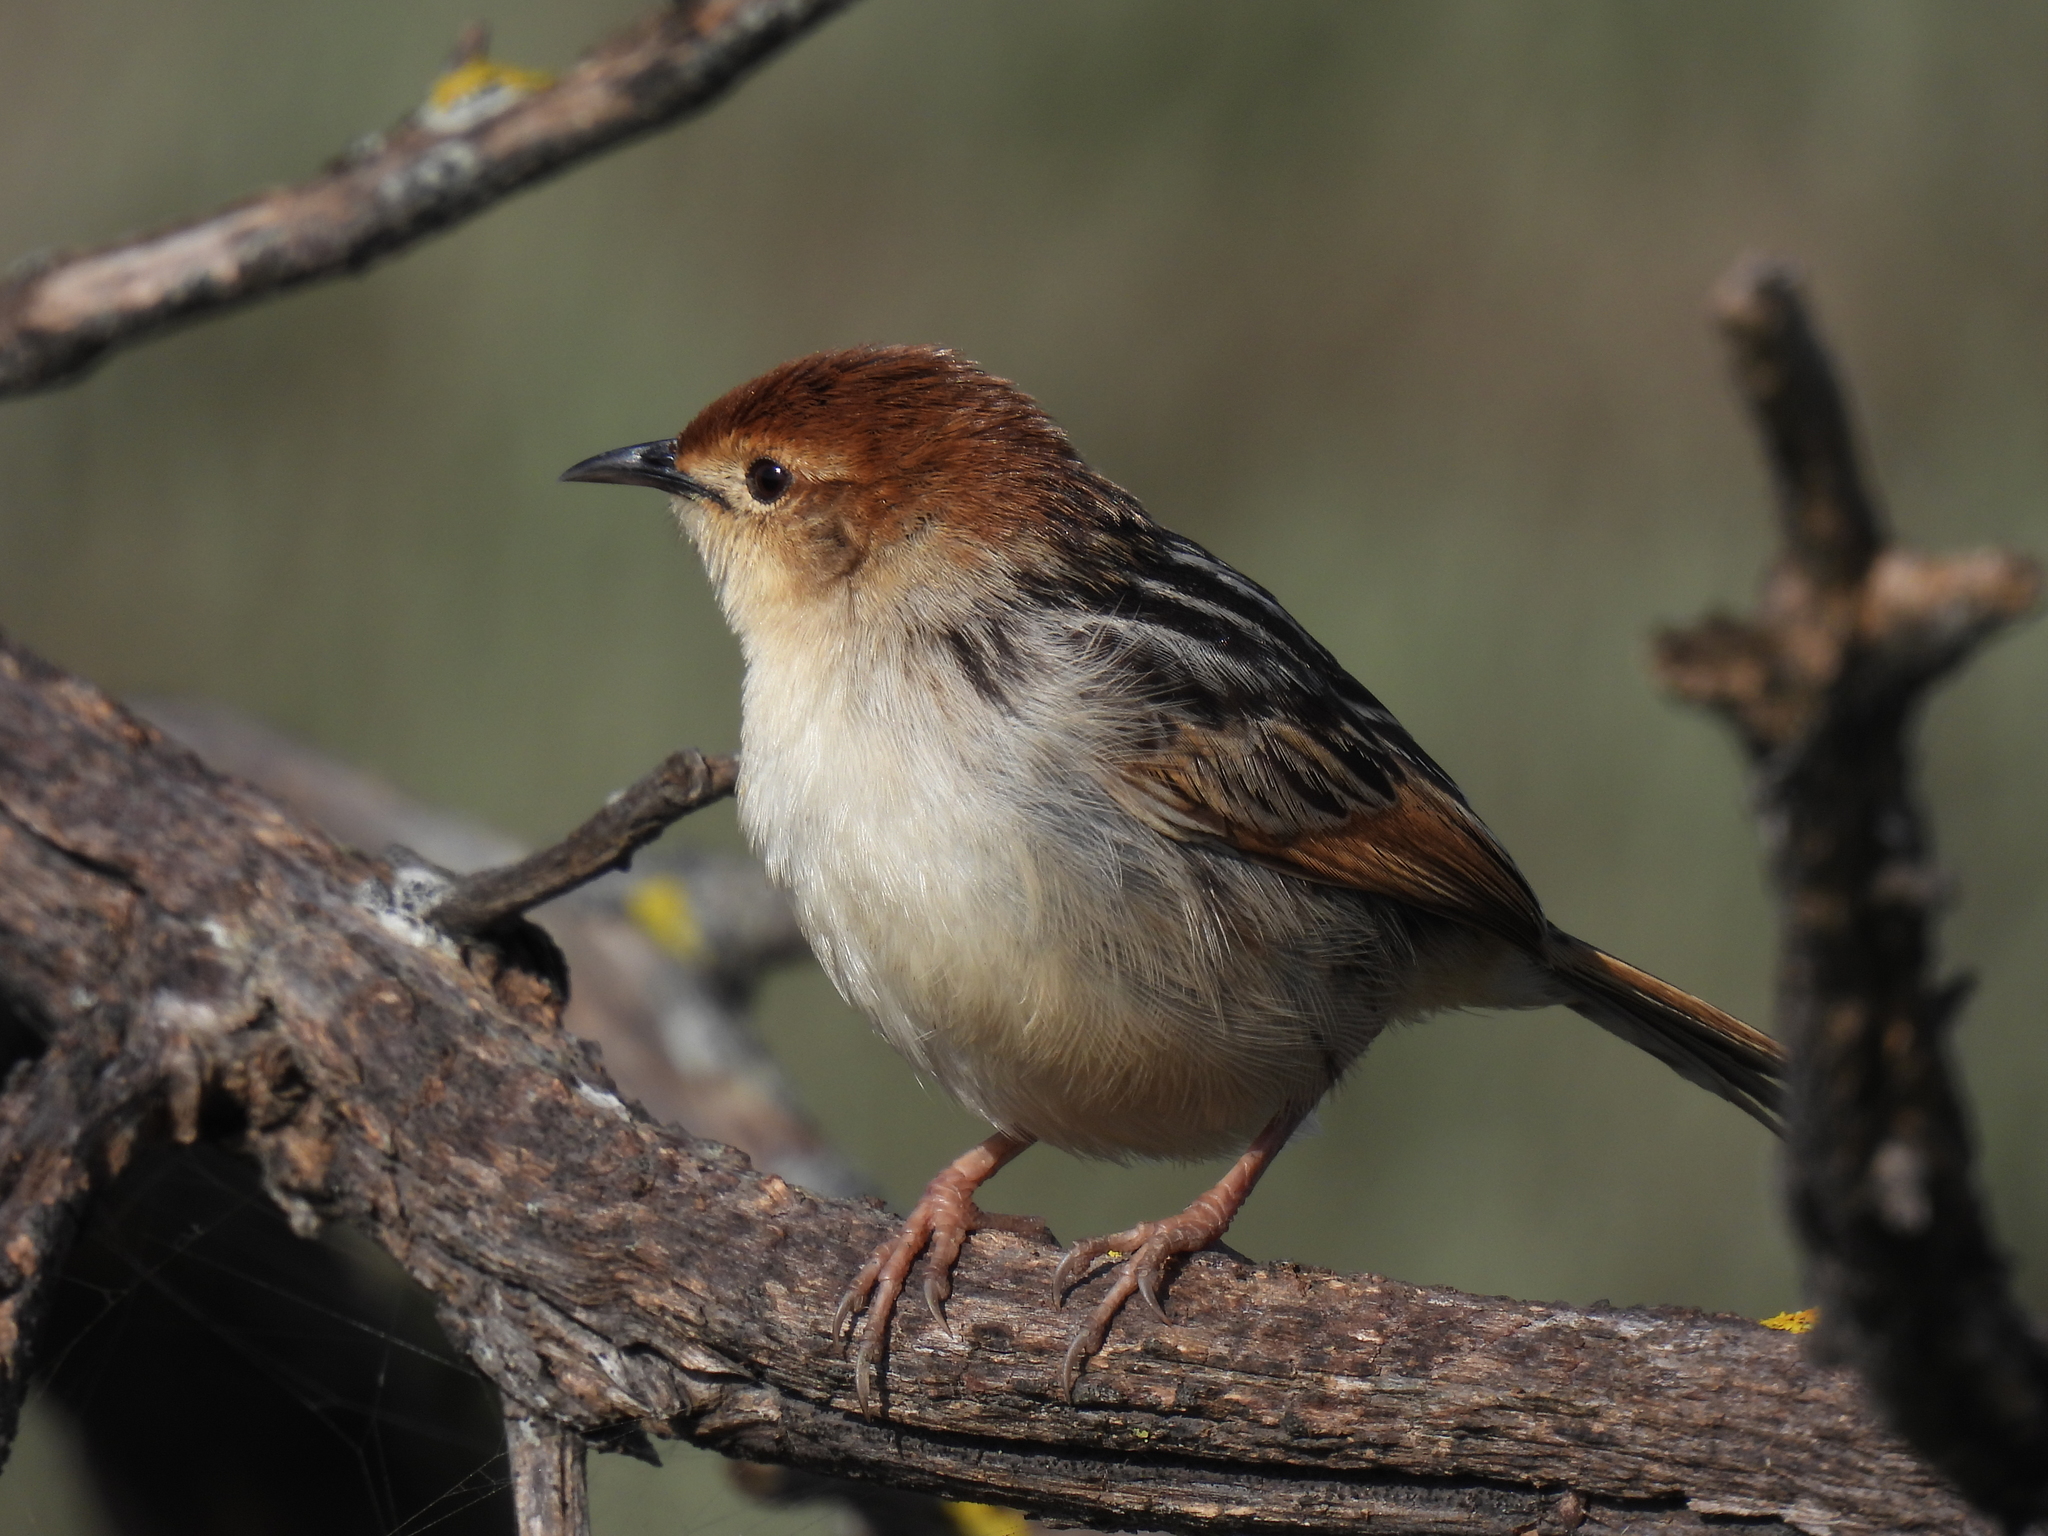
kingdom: Animalia
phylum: Chordata
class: Aves
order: Passeriformes
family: Cisticolidae
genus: Cisticola
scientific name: Cisticola tinniens
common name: Levaillant's cisticola
